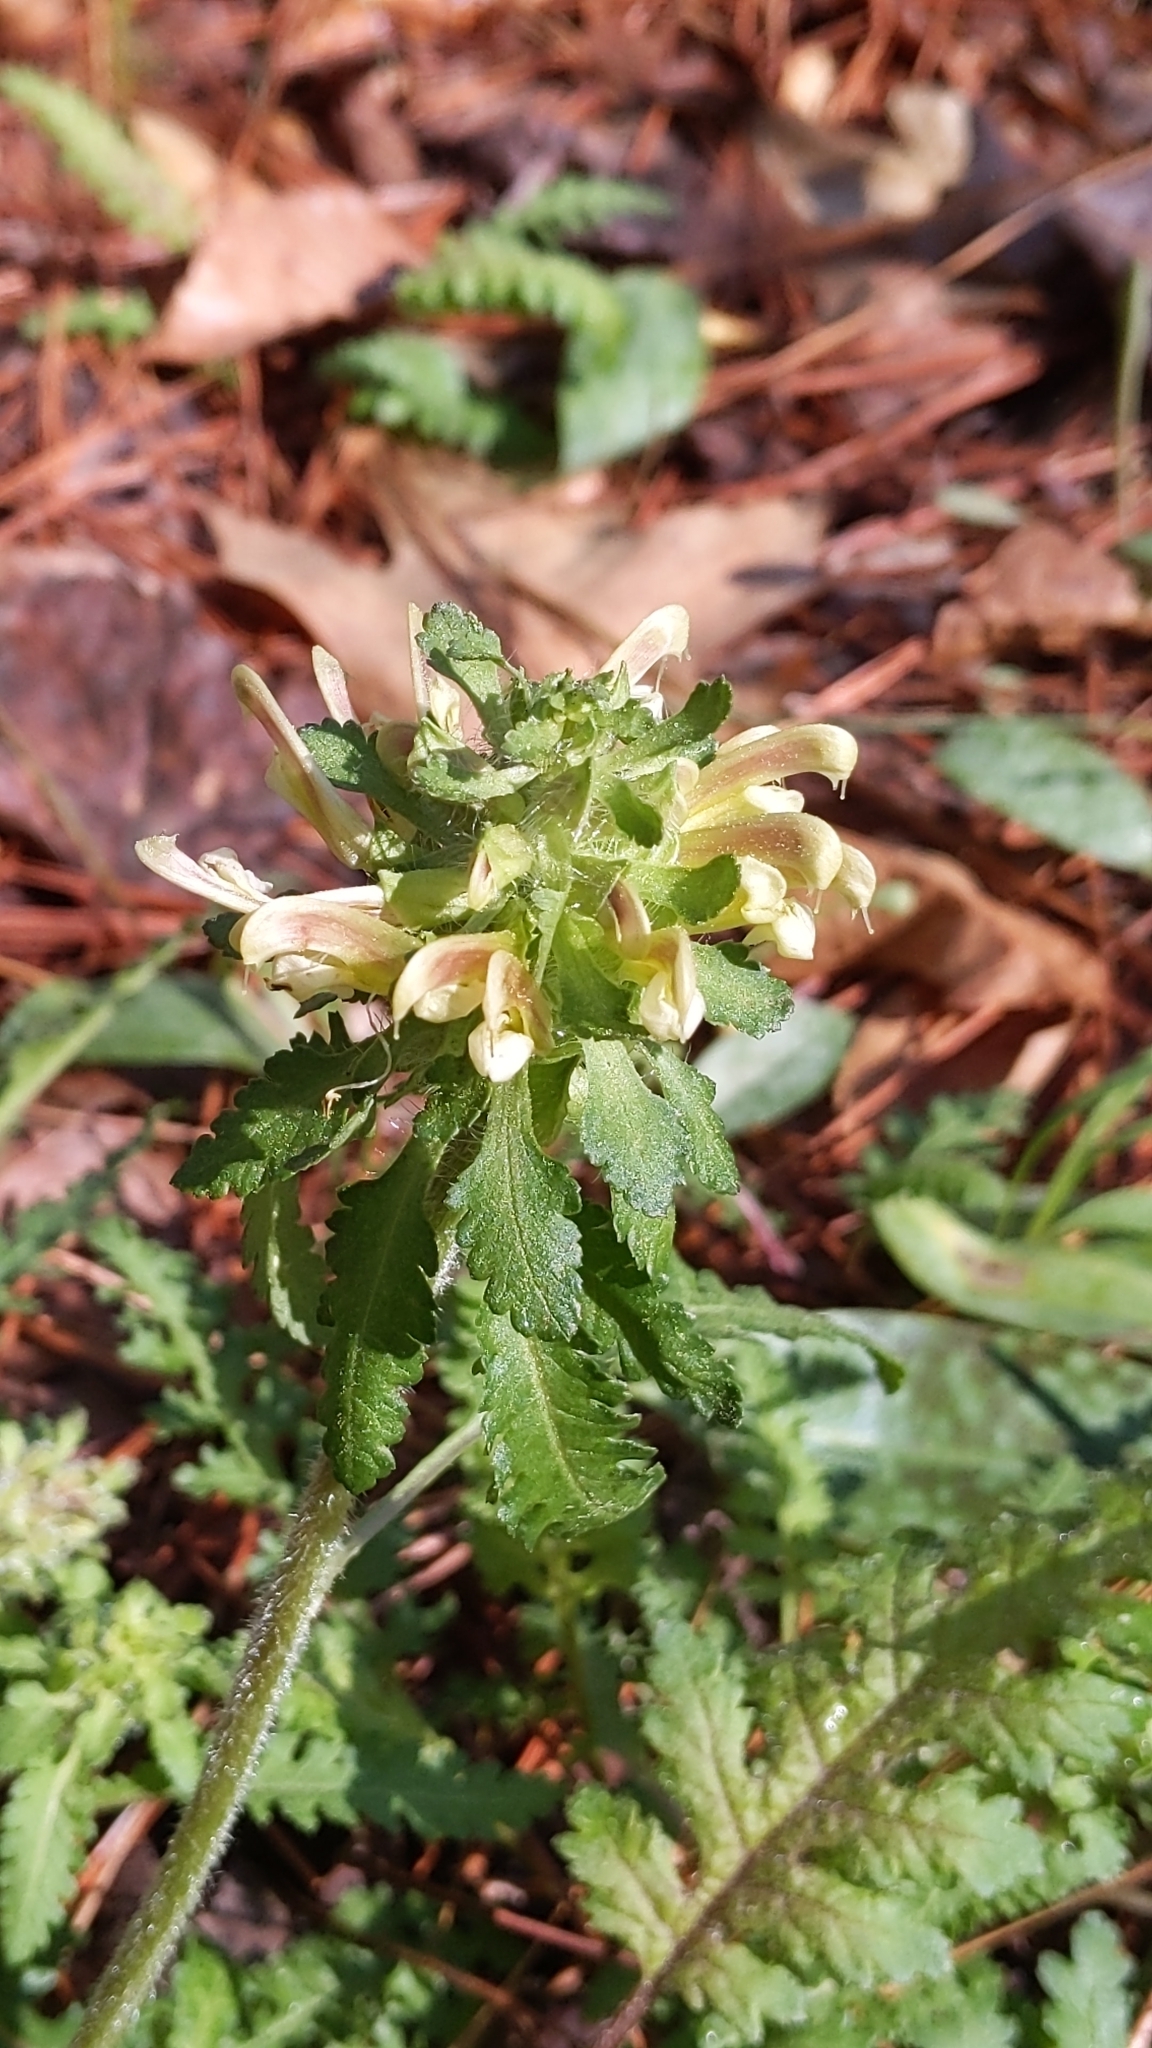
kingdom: Plantae
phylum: Tracheophyta
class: Magnoliopsida
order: Lamiales
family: Orobanchaceae
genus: Pedicularis
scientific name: Pedicularis canadensis
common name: Early lousewort
